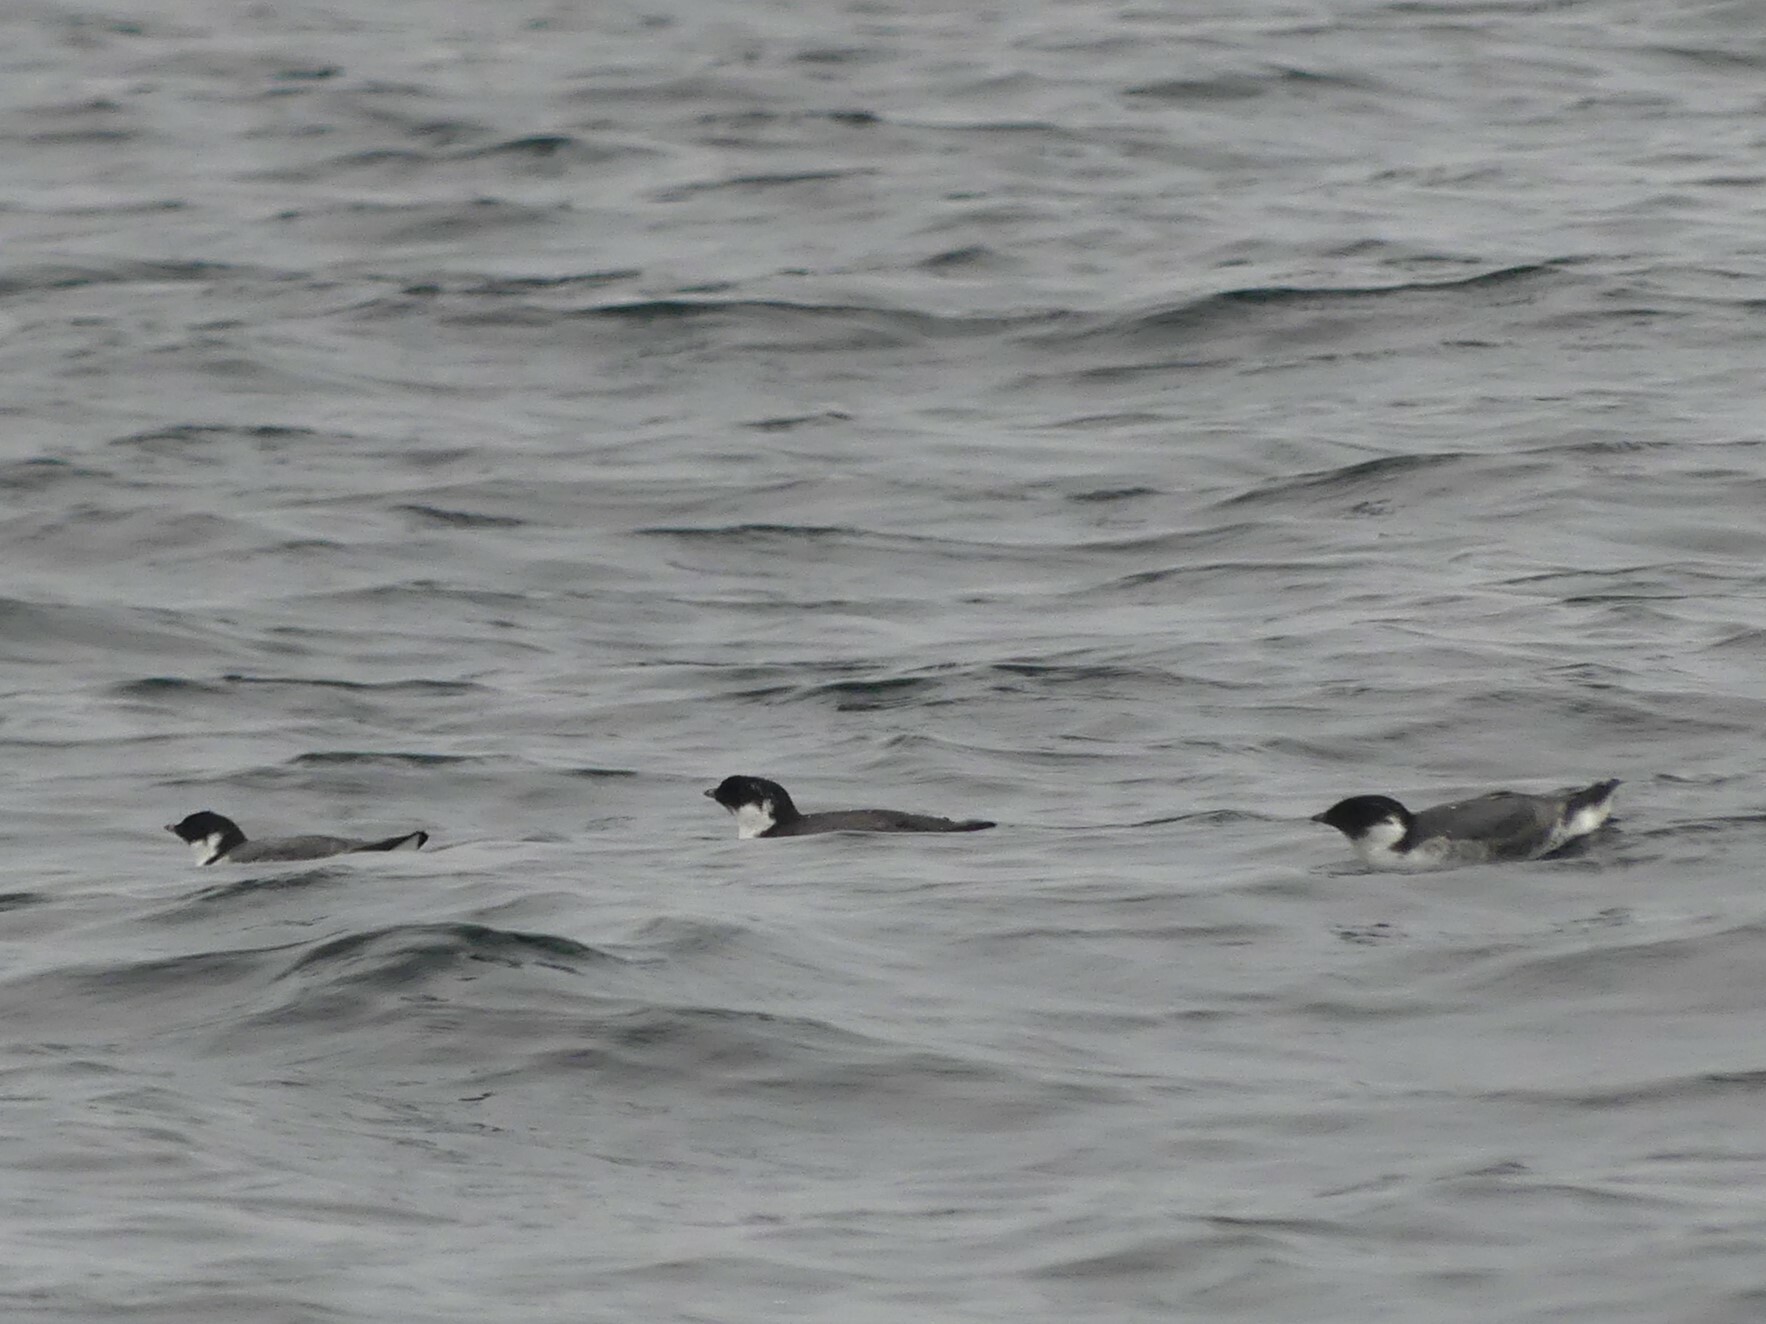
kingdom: Animalia
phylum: Chordata
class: Aves
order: Charadriiformes
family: Alcidae
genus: Synthliboramphus
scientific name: Synthliboramphus antiquus
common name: Ancient murrelet
